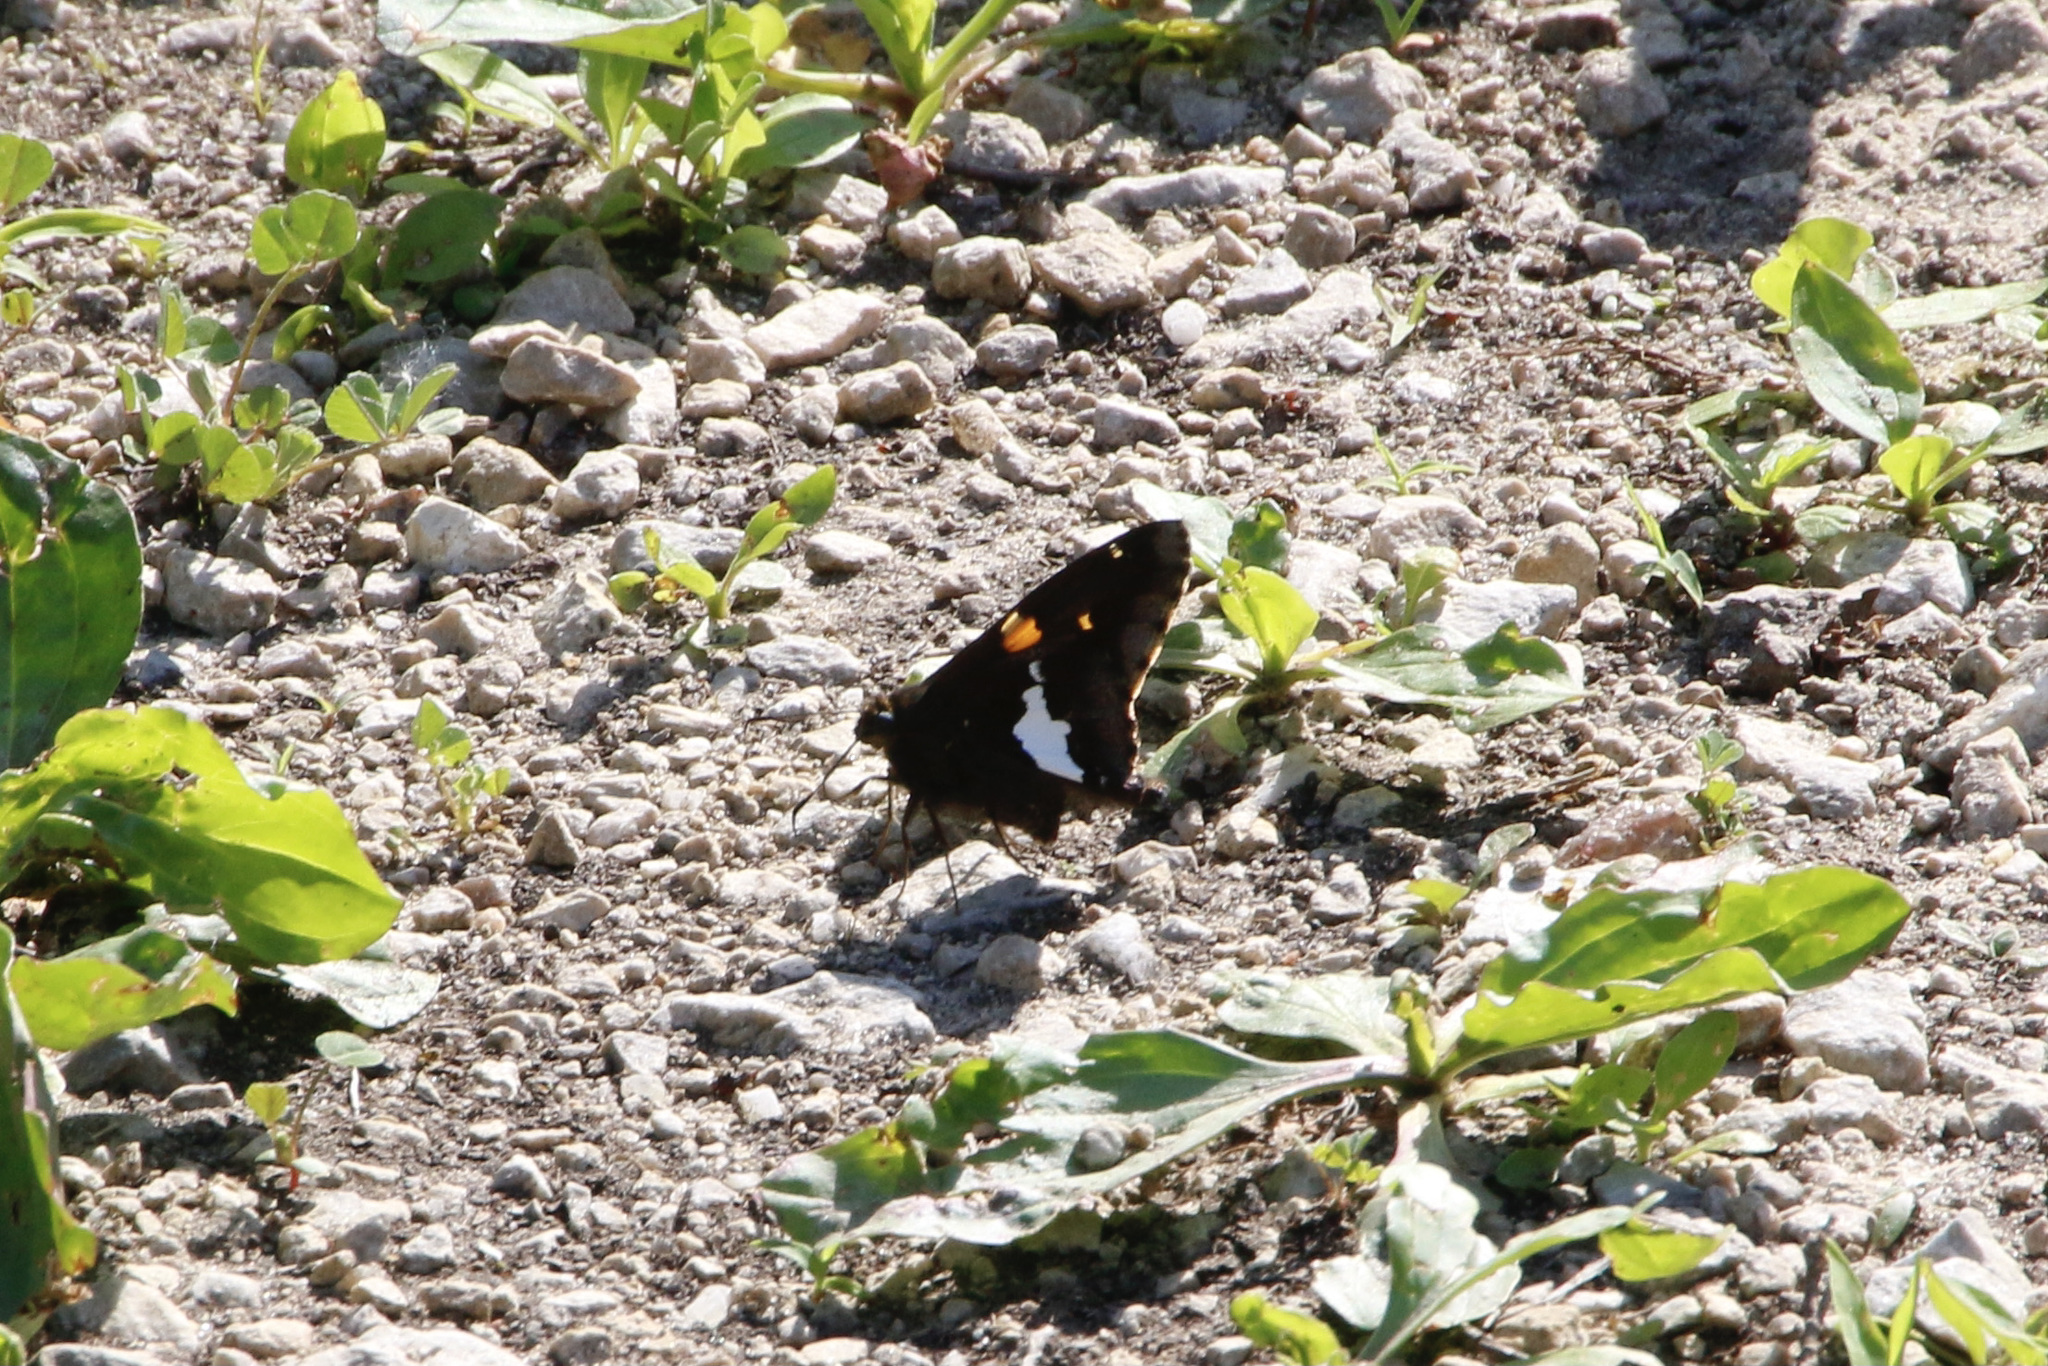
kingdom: Animalia
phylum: Arthropoda
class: Insecta
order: Lepidoptera
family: Hesperiidae
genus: Epargyreus
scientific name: Epargyreus clarus
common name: Silver-spotted skipper
